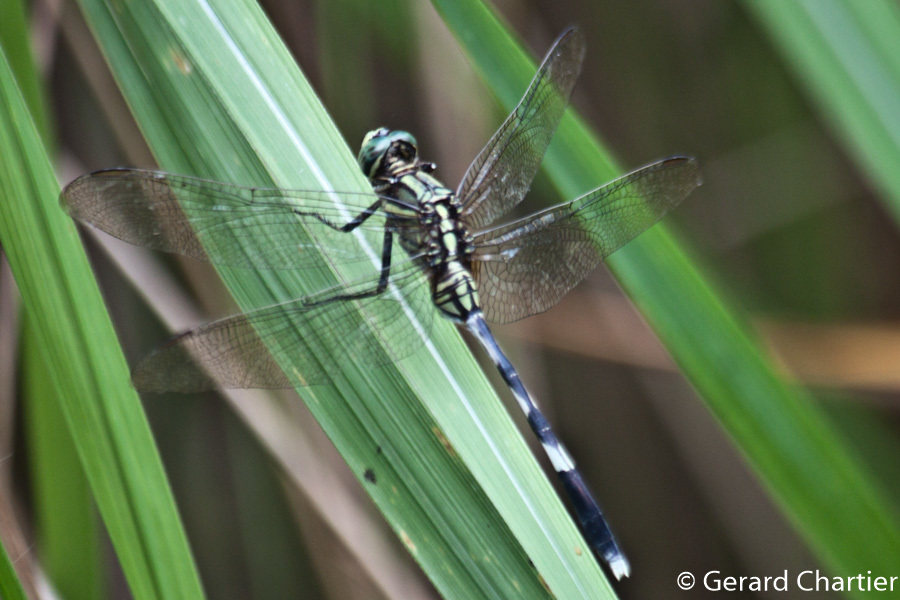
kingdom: Animalia
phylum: Arthropoda
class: Insecta
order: Odonata
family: Libellulidae
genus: Orthetrum
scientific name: Orthetrum sabina
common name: Slender skimmer
